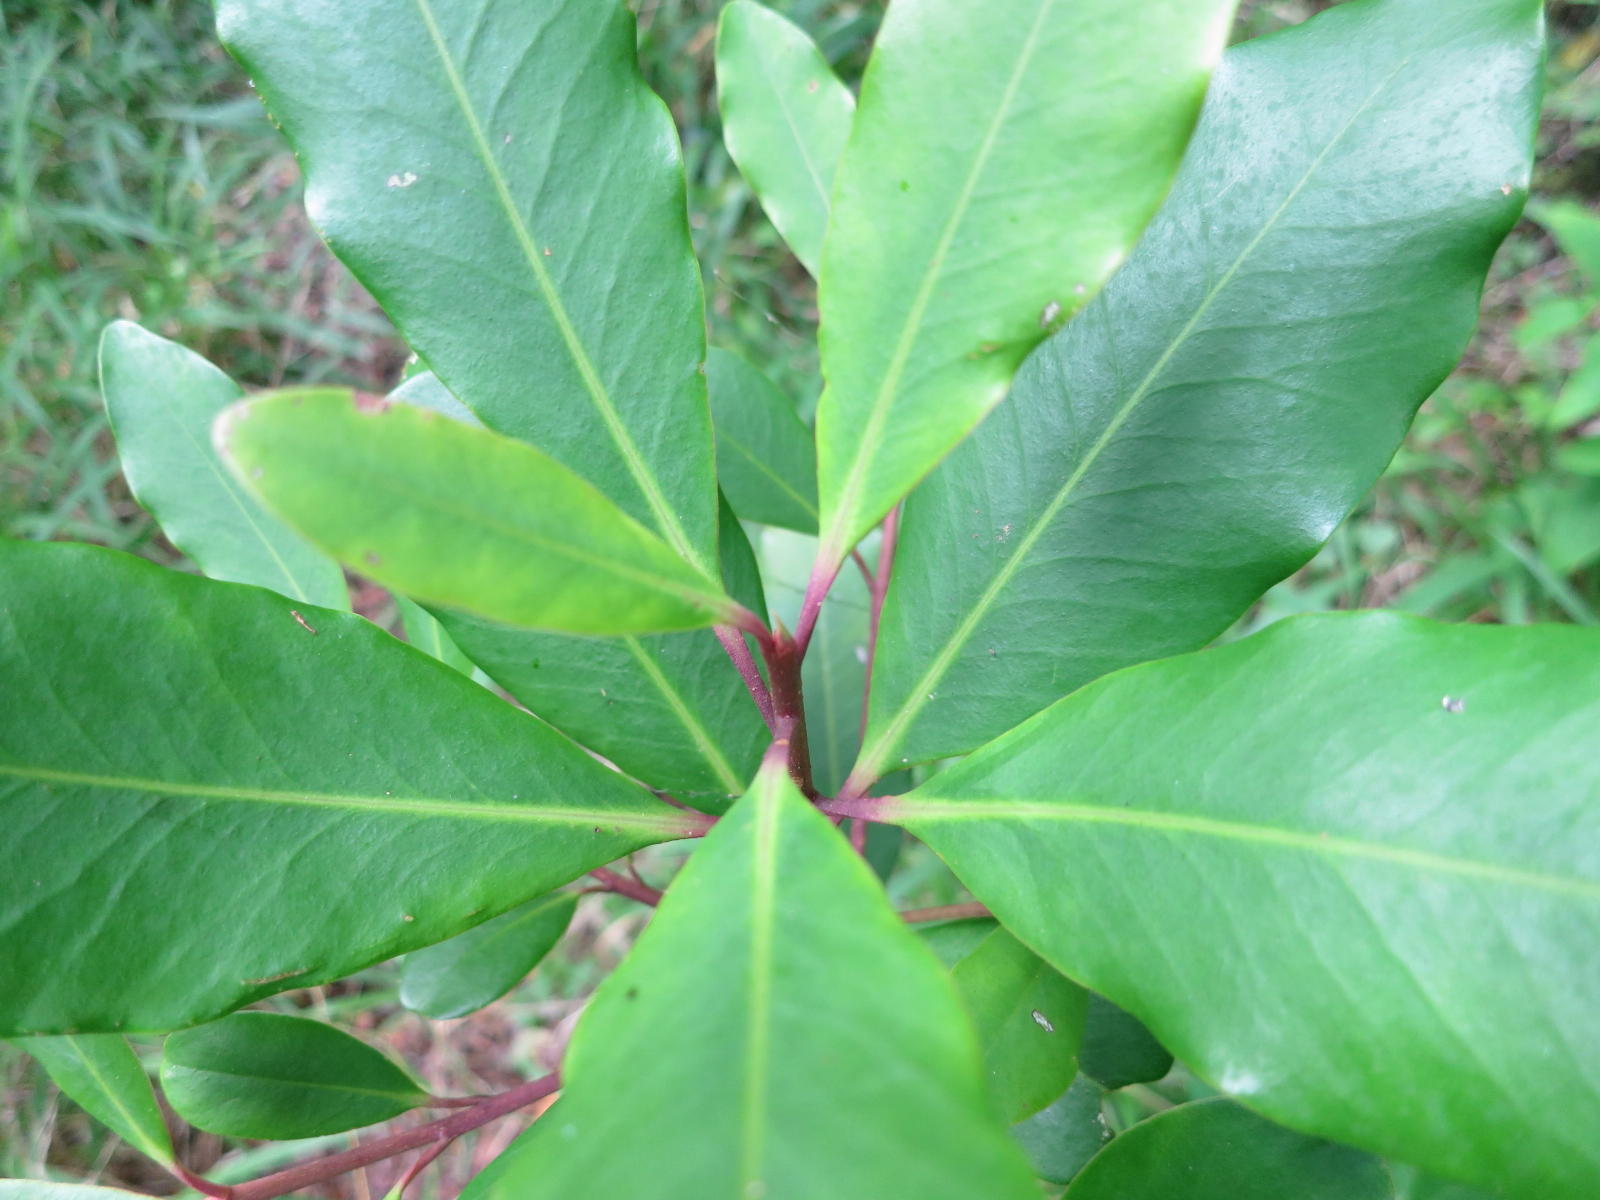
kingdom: Plantae
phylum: Tracheophyta
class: Magnoliopsida
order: Ericales
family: Primulaceae
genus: Myrsine
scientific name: Myrsine melanophloeos
